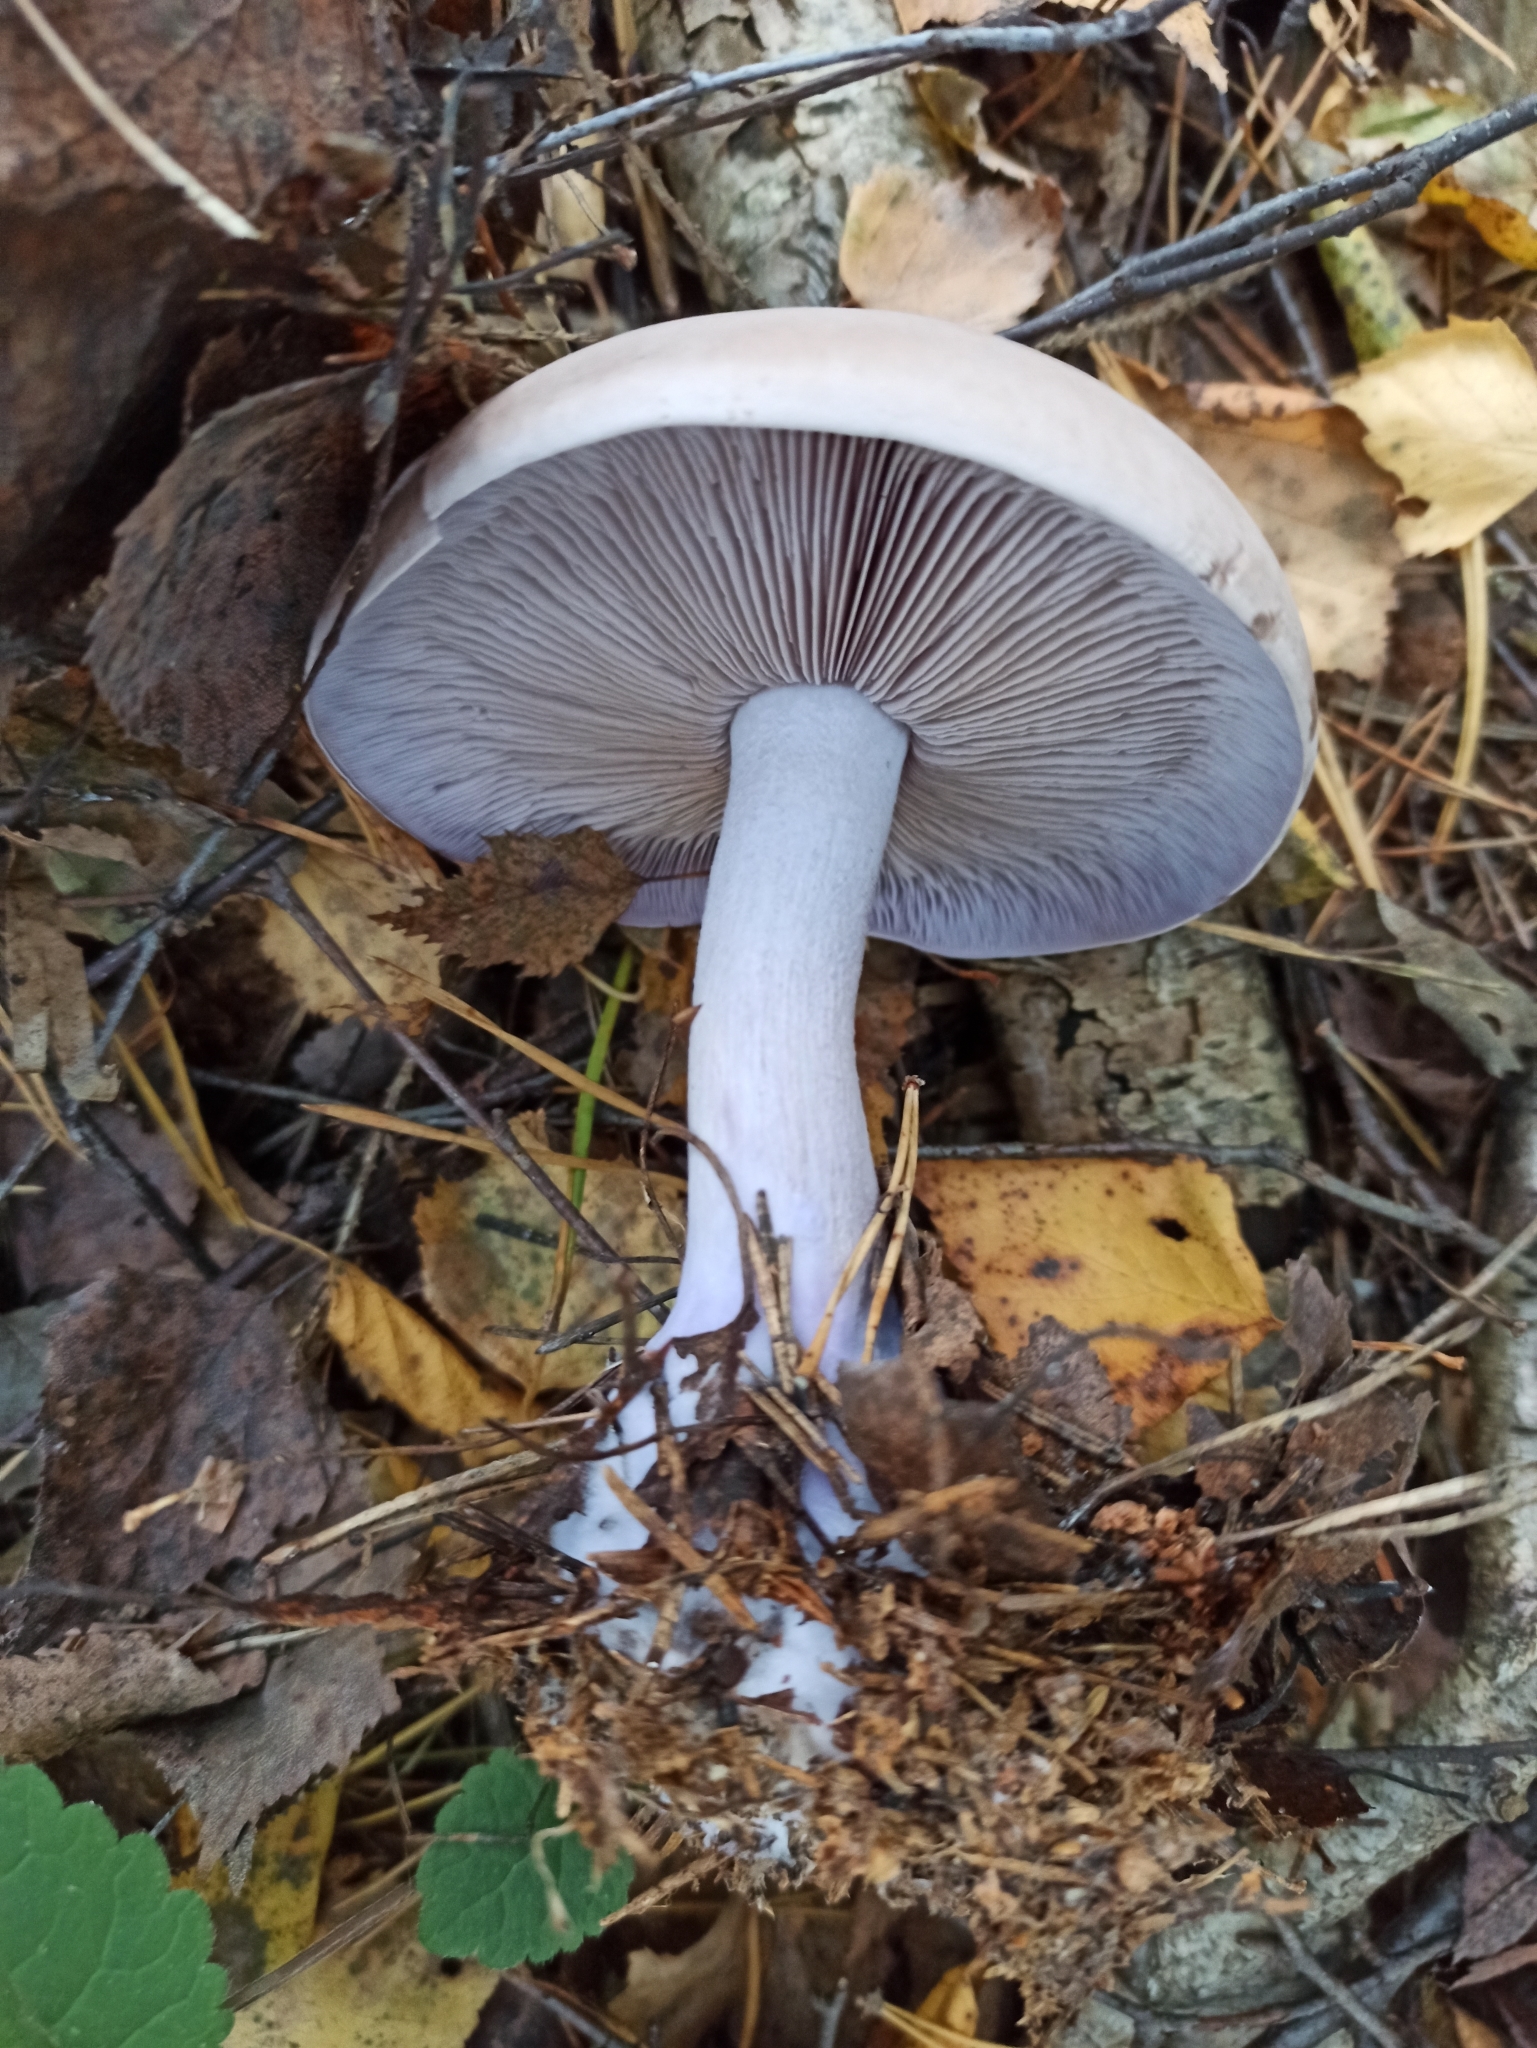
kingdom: Fungi
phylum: Basidiomycota
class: Agaricomycetes
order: Agaricales
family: Tricholomataceae
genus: Collybia
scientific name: Collybia
